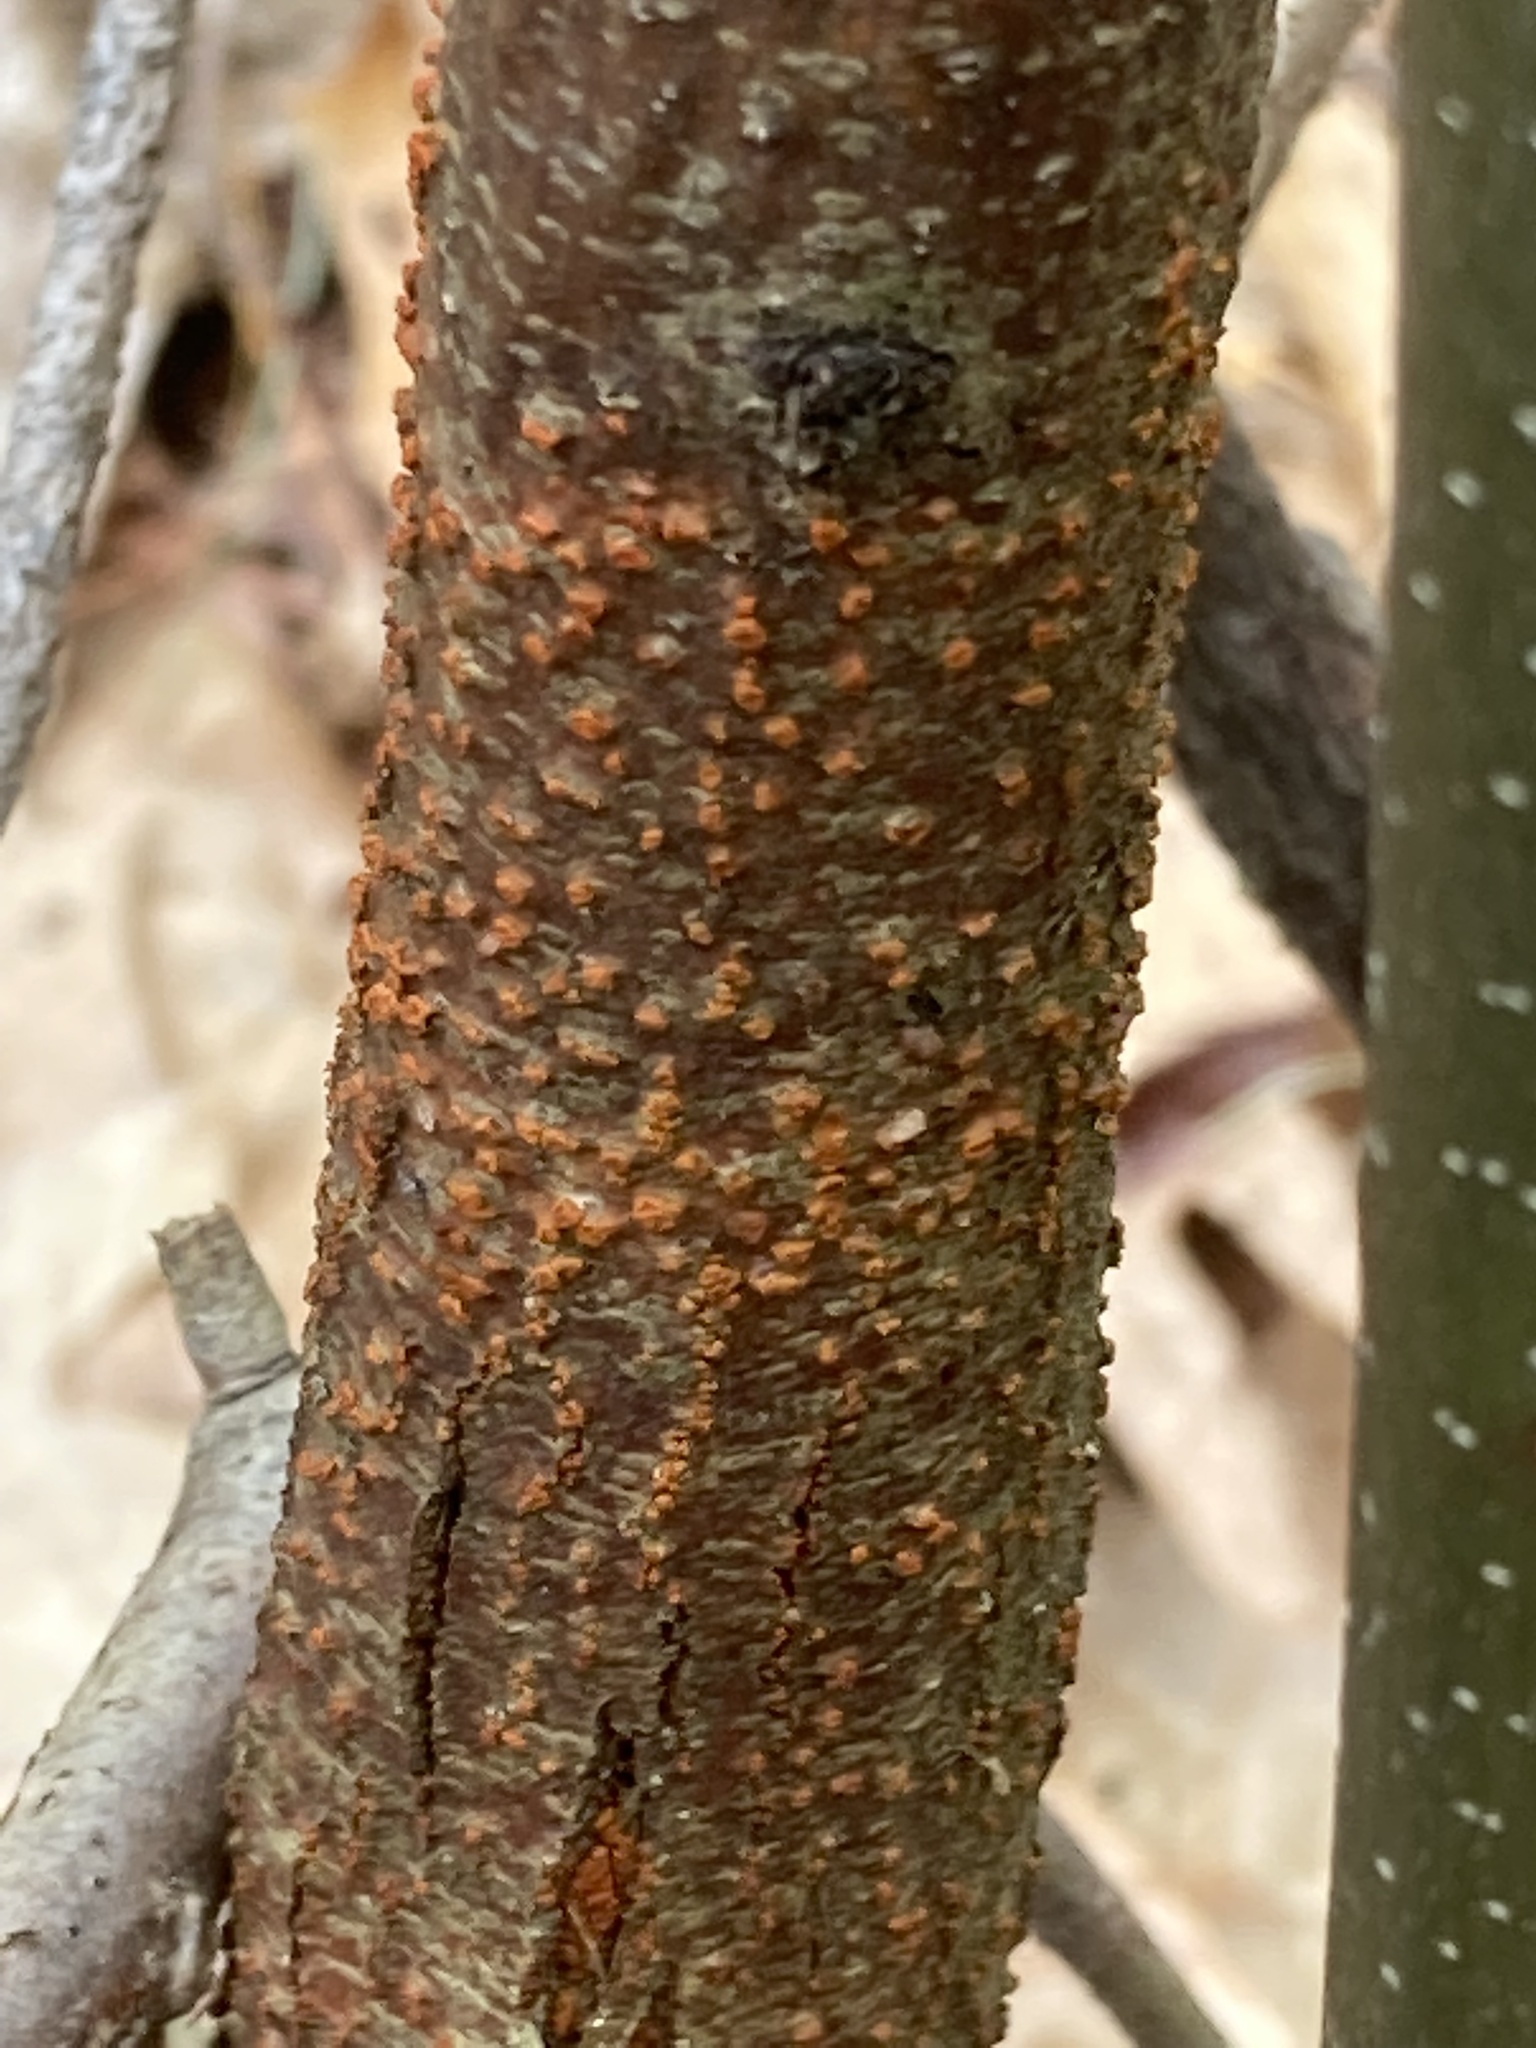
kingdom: Fungi
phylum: Ascomycota
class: Sordariomycetes
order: Diaporthales
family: Cryphonectriaceae
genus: Cryphonectria
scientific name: Cryphonectria parasitica
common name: Chestnut blight
